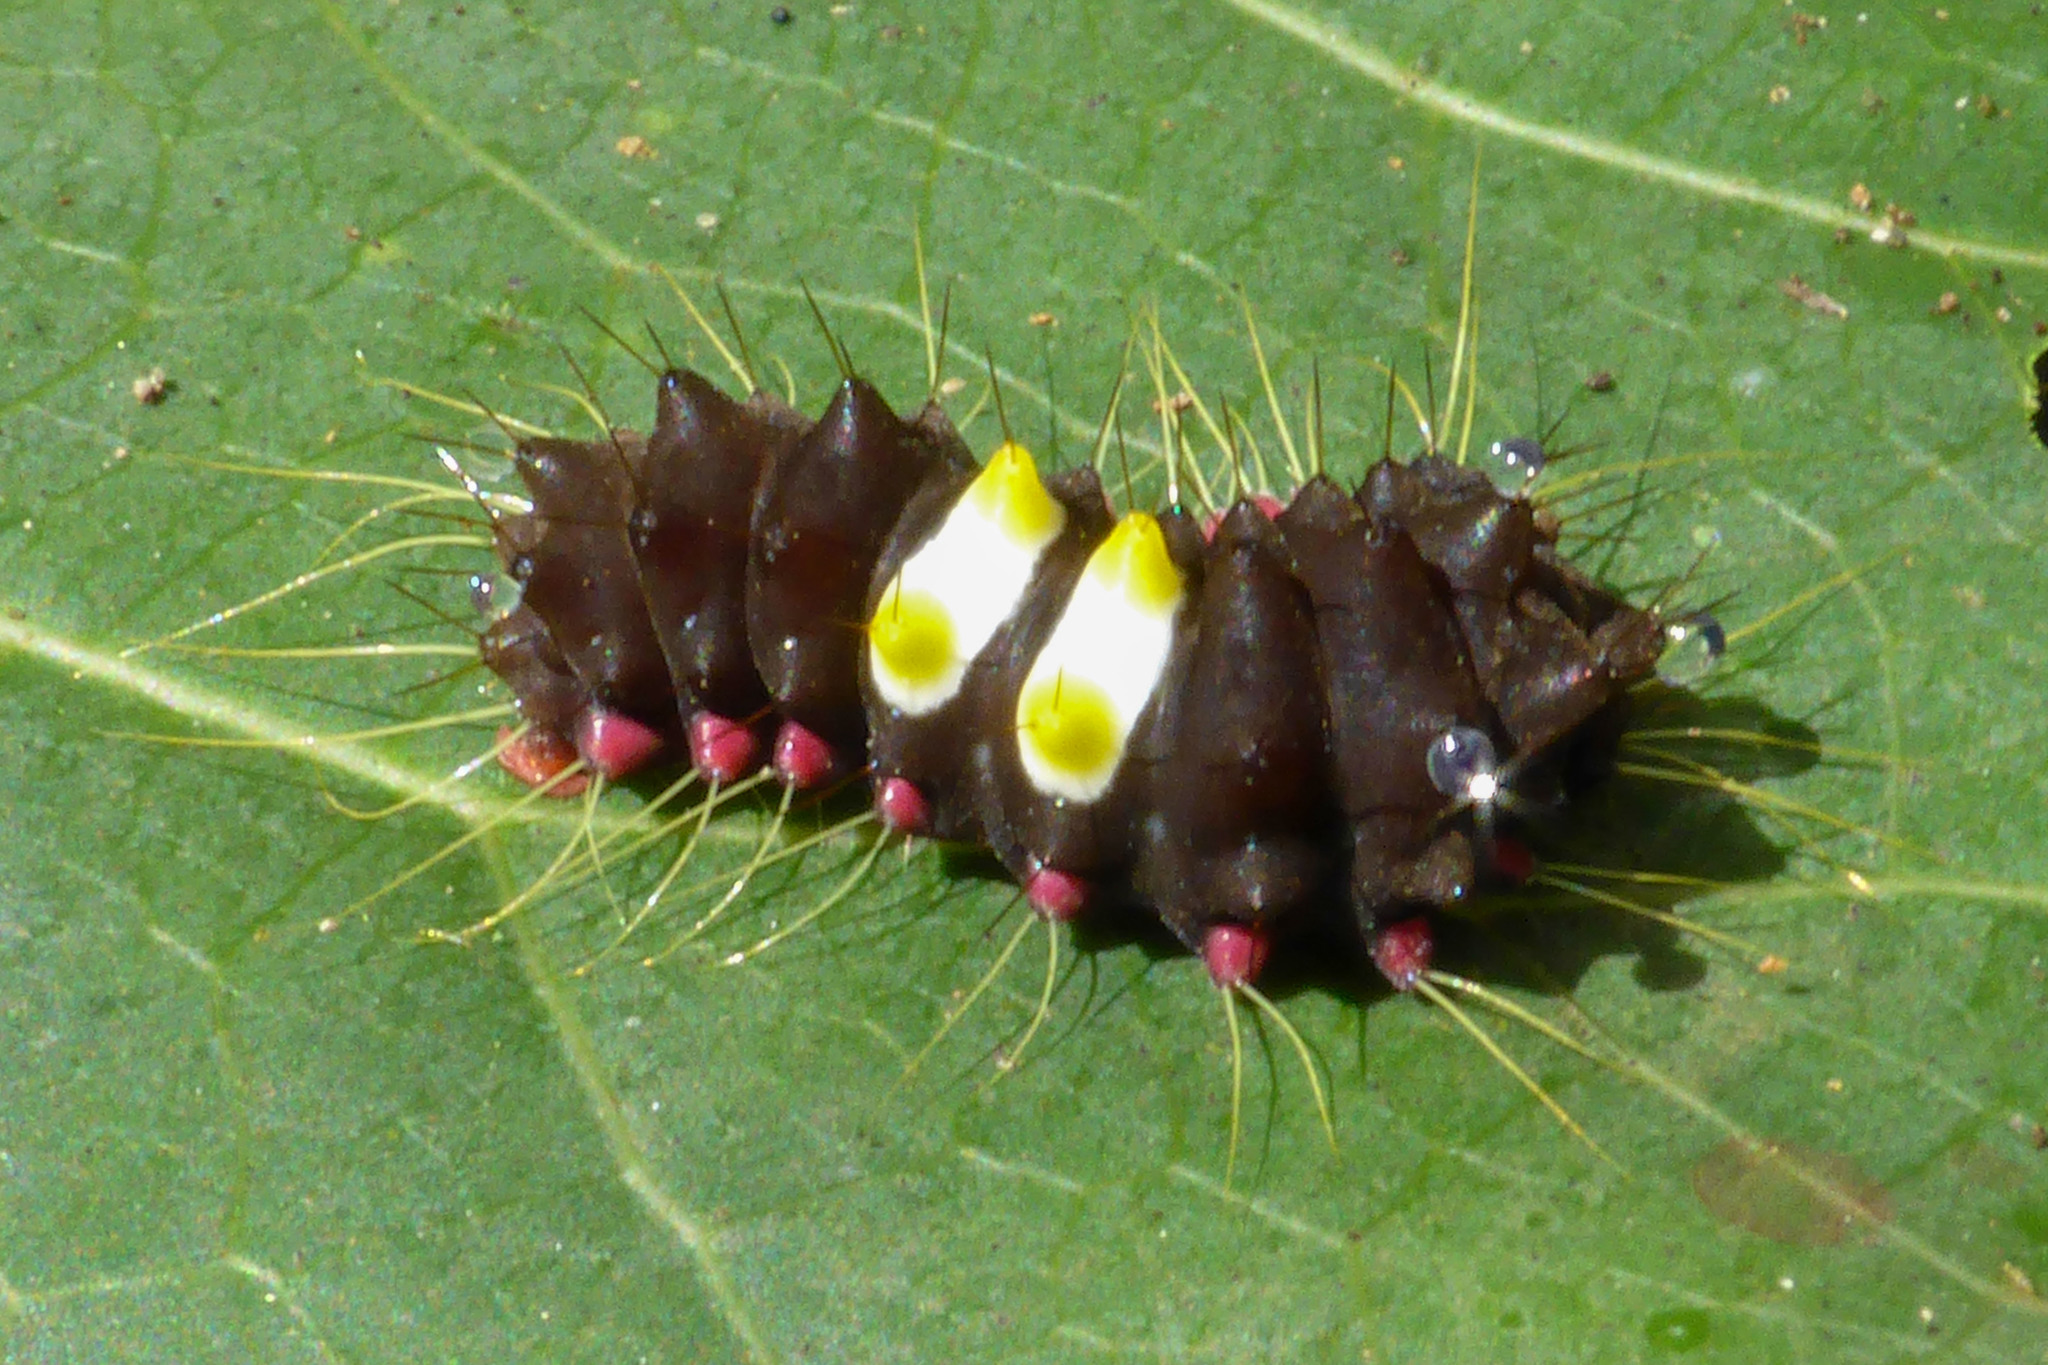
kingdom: Animalia
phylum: Arthropoda
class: Insecta
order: Lepidoptera
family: Zygaenidae
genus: Amesia
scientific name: Amesia sanguiflua
